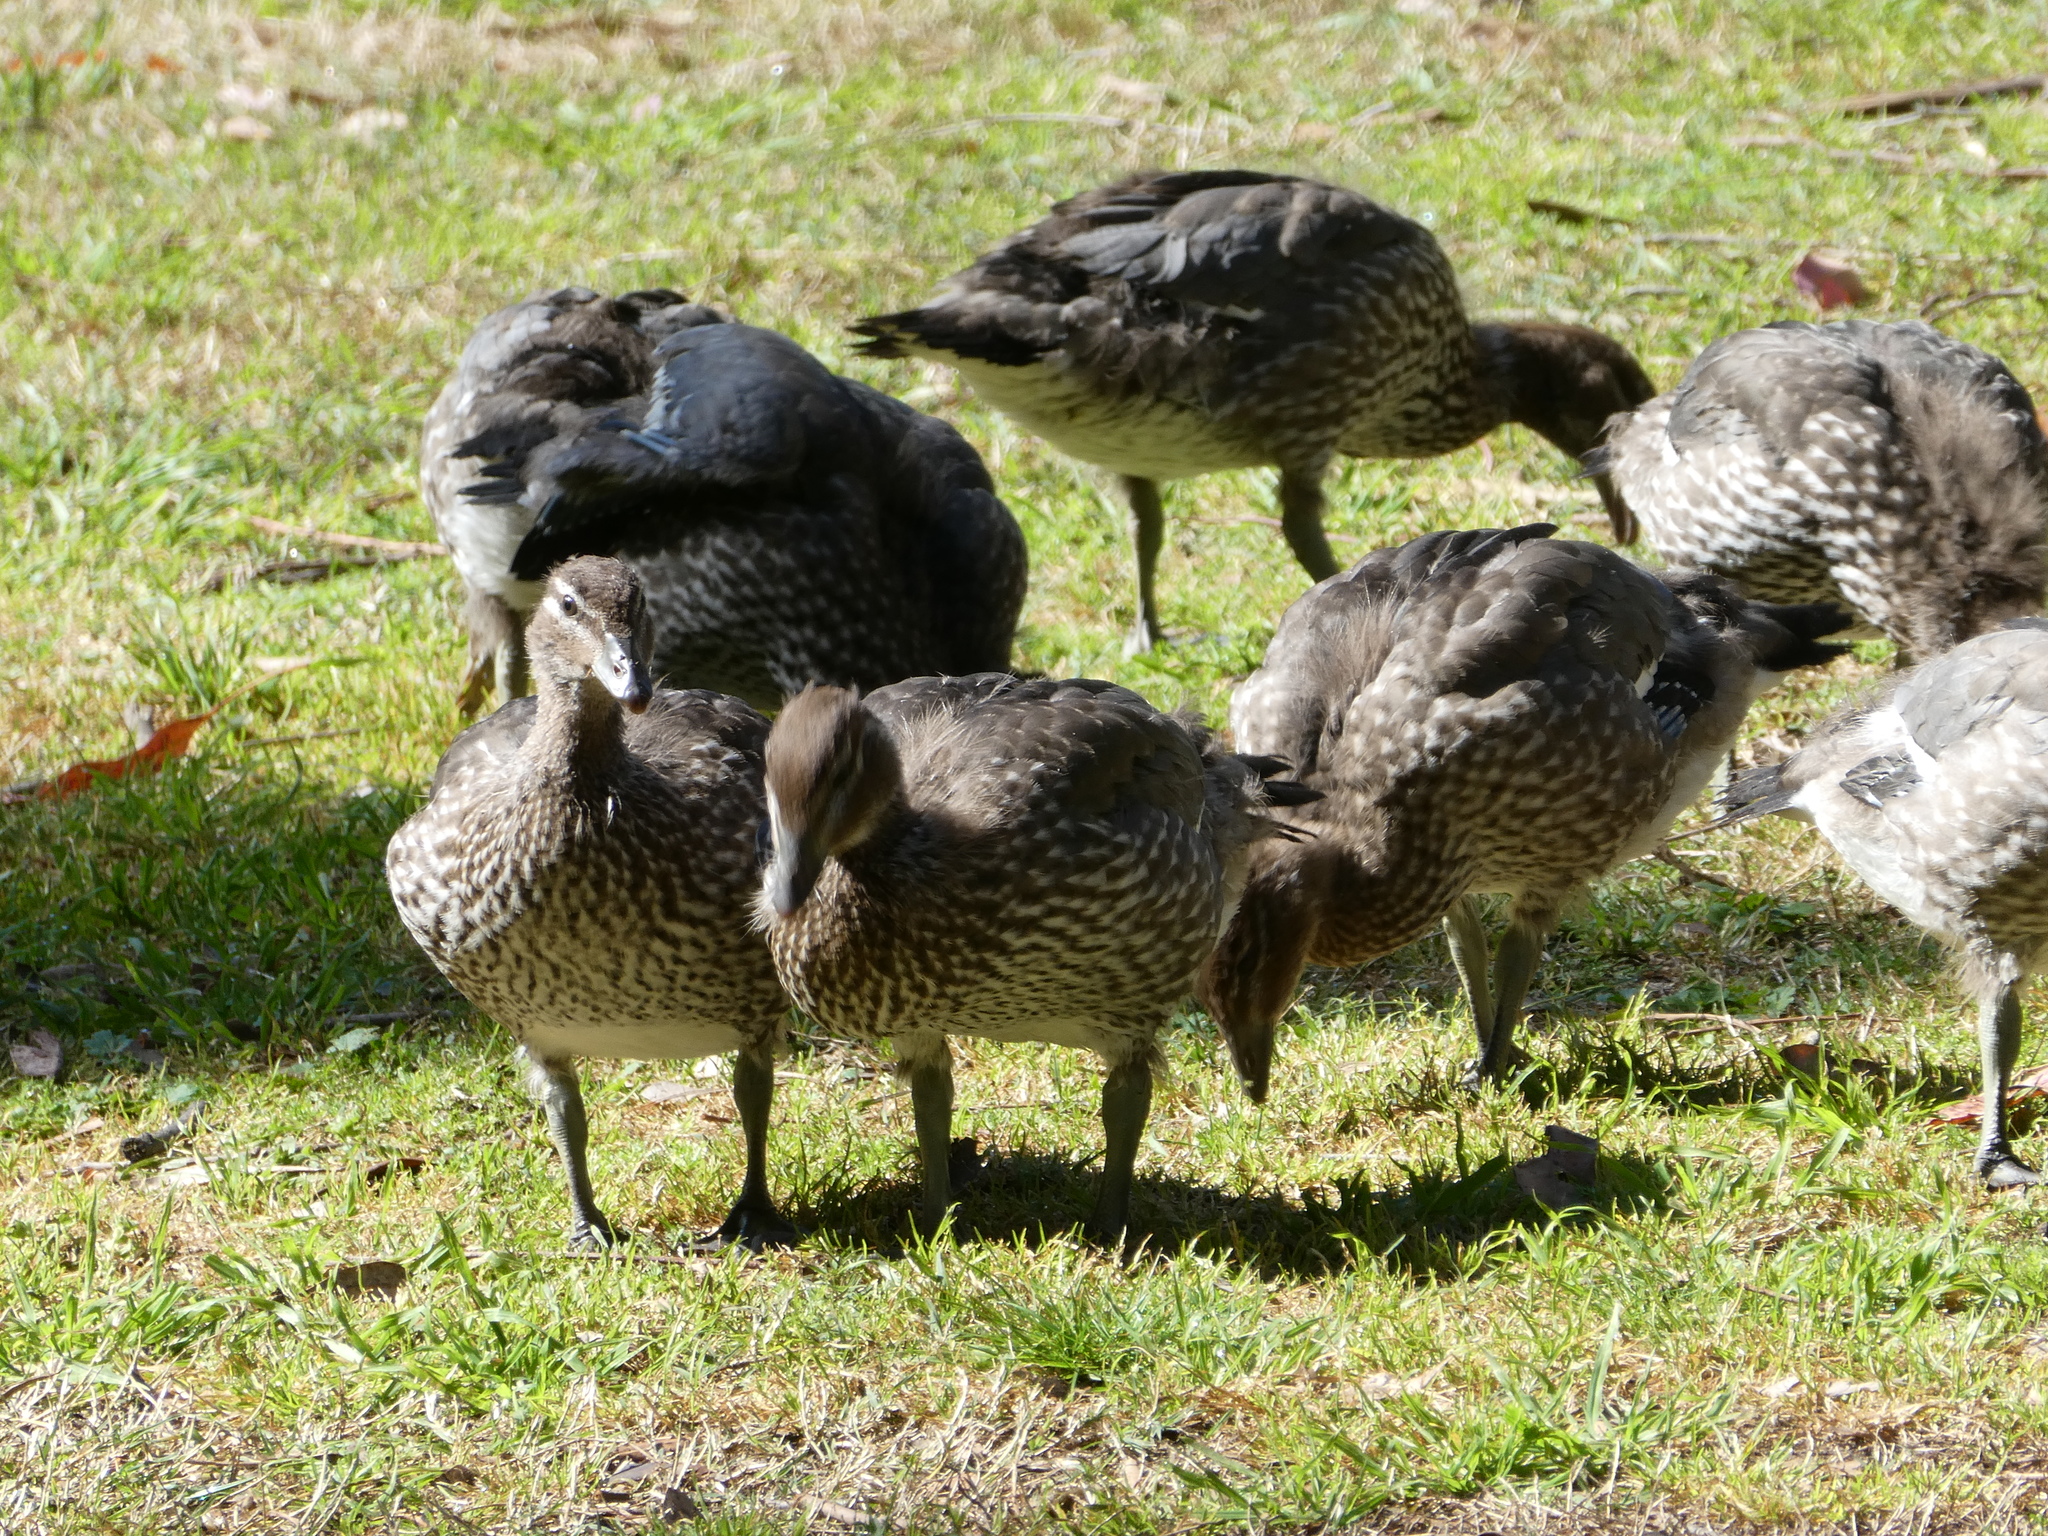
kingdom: Animalia
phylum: Chordata
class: Aves
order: Anseriformes
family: Anatidae
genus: Chenonetta
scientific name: Chenonetta jubata
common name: Maned duck
